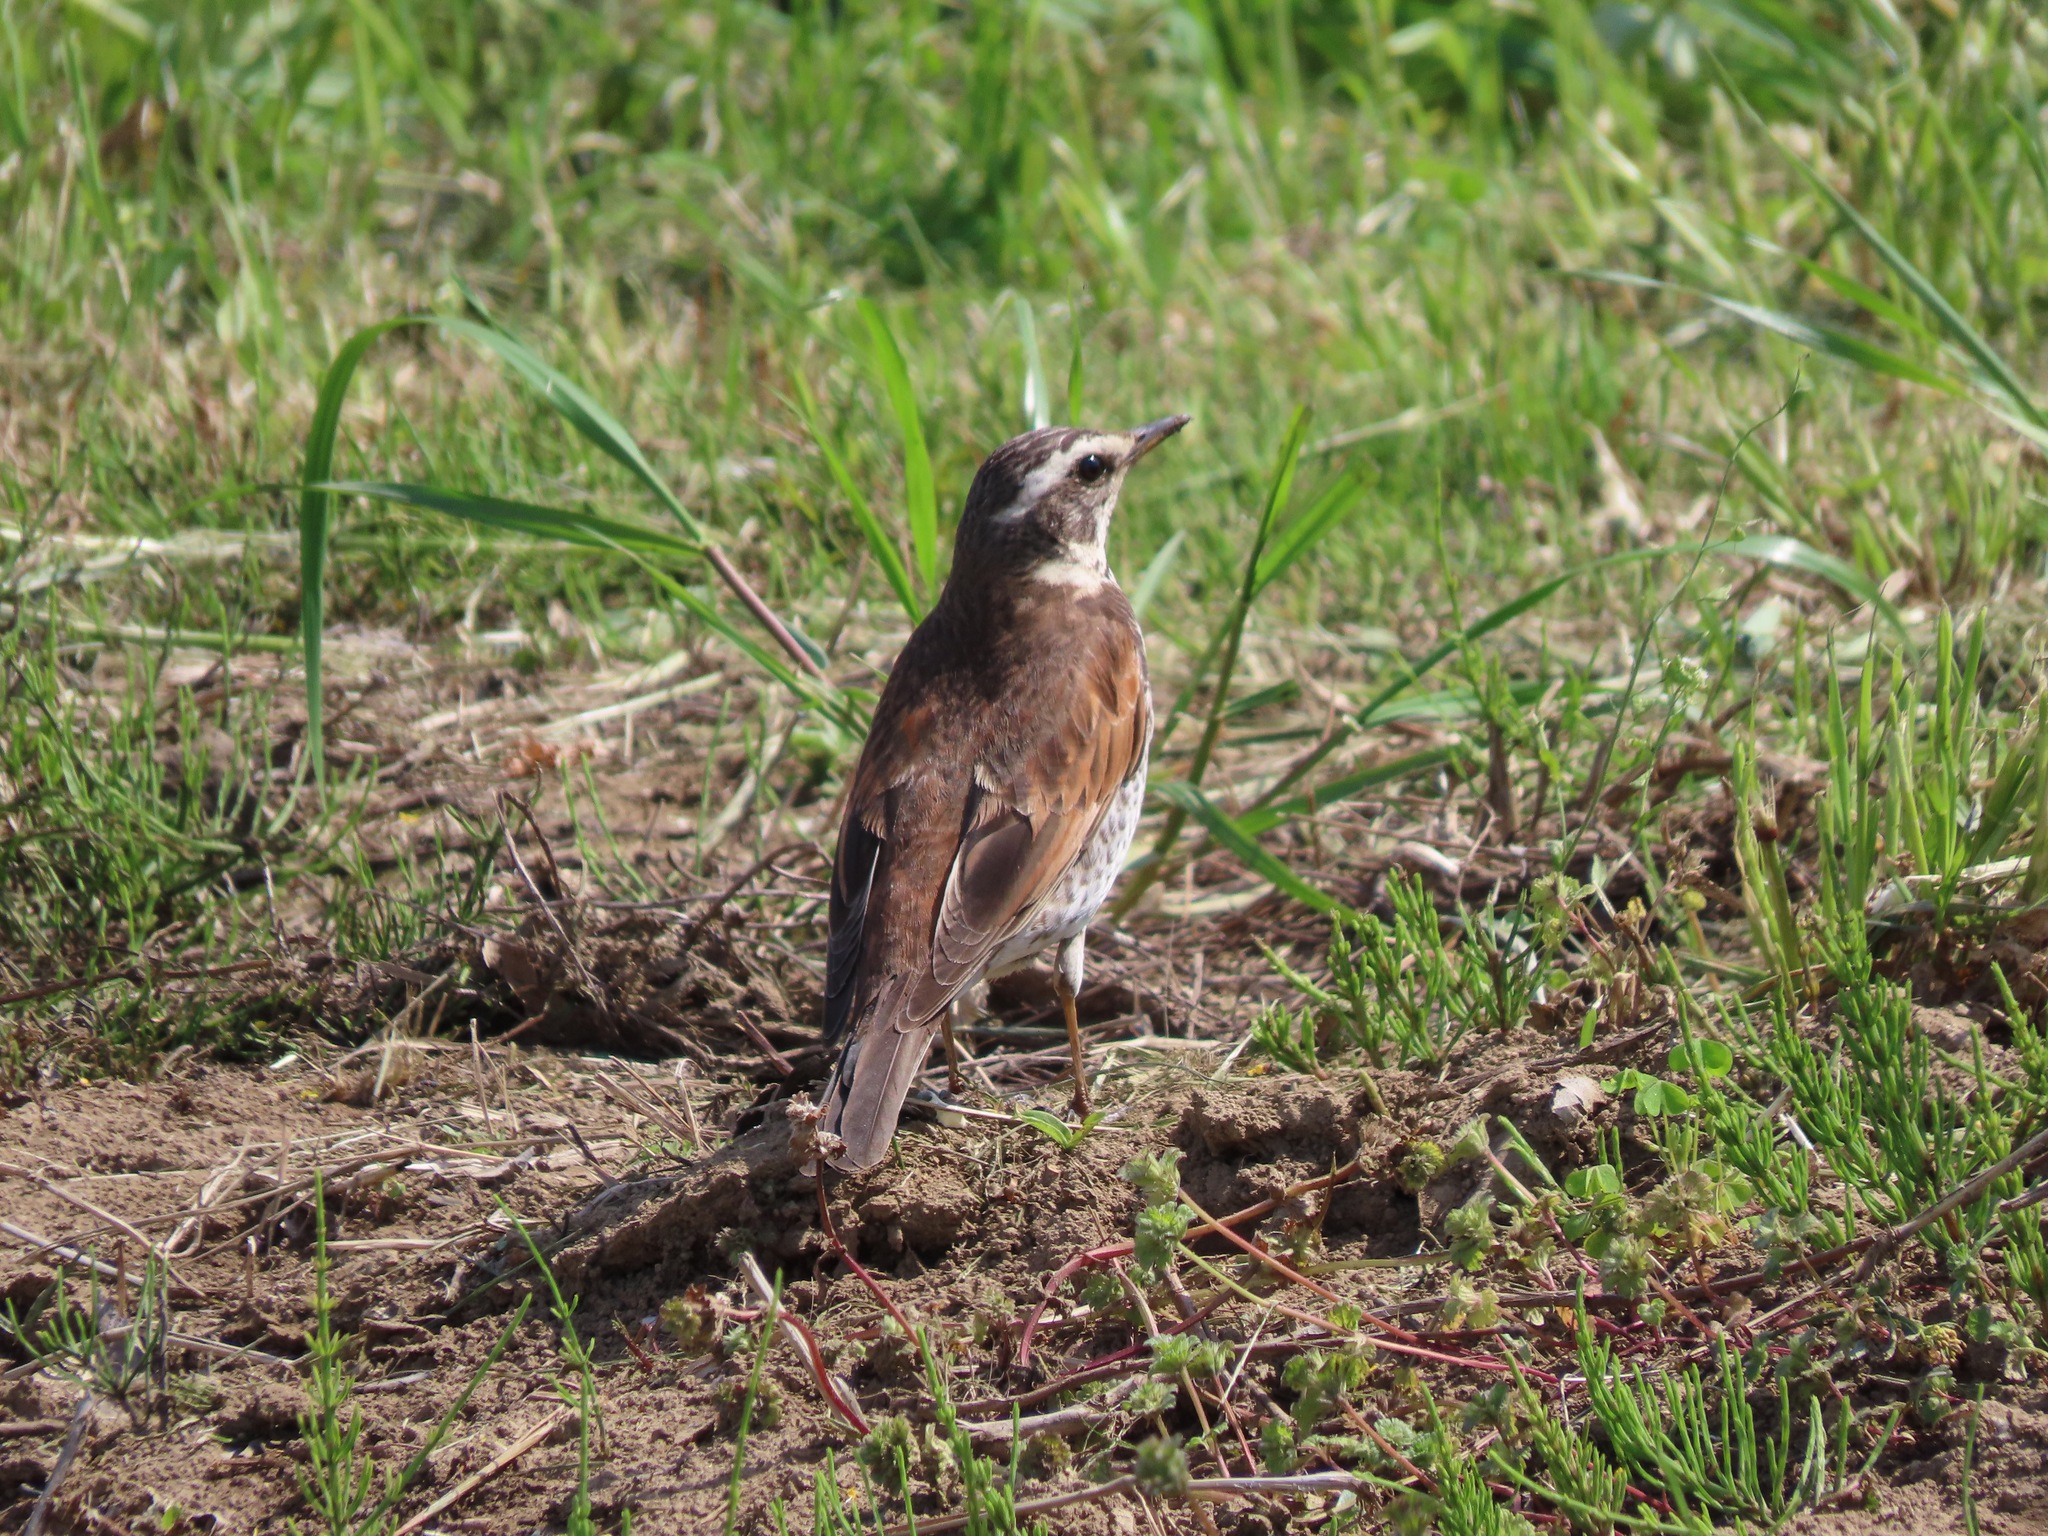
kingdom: Animalia
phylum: Chordata
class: Aves
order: Passeriformes
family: Turdidae
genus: Turdus
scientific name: Turdus eunomus
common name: Dusky thrush
